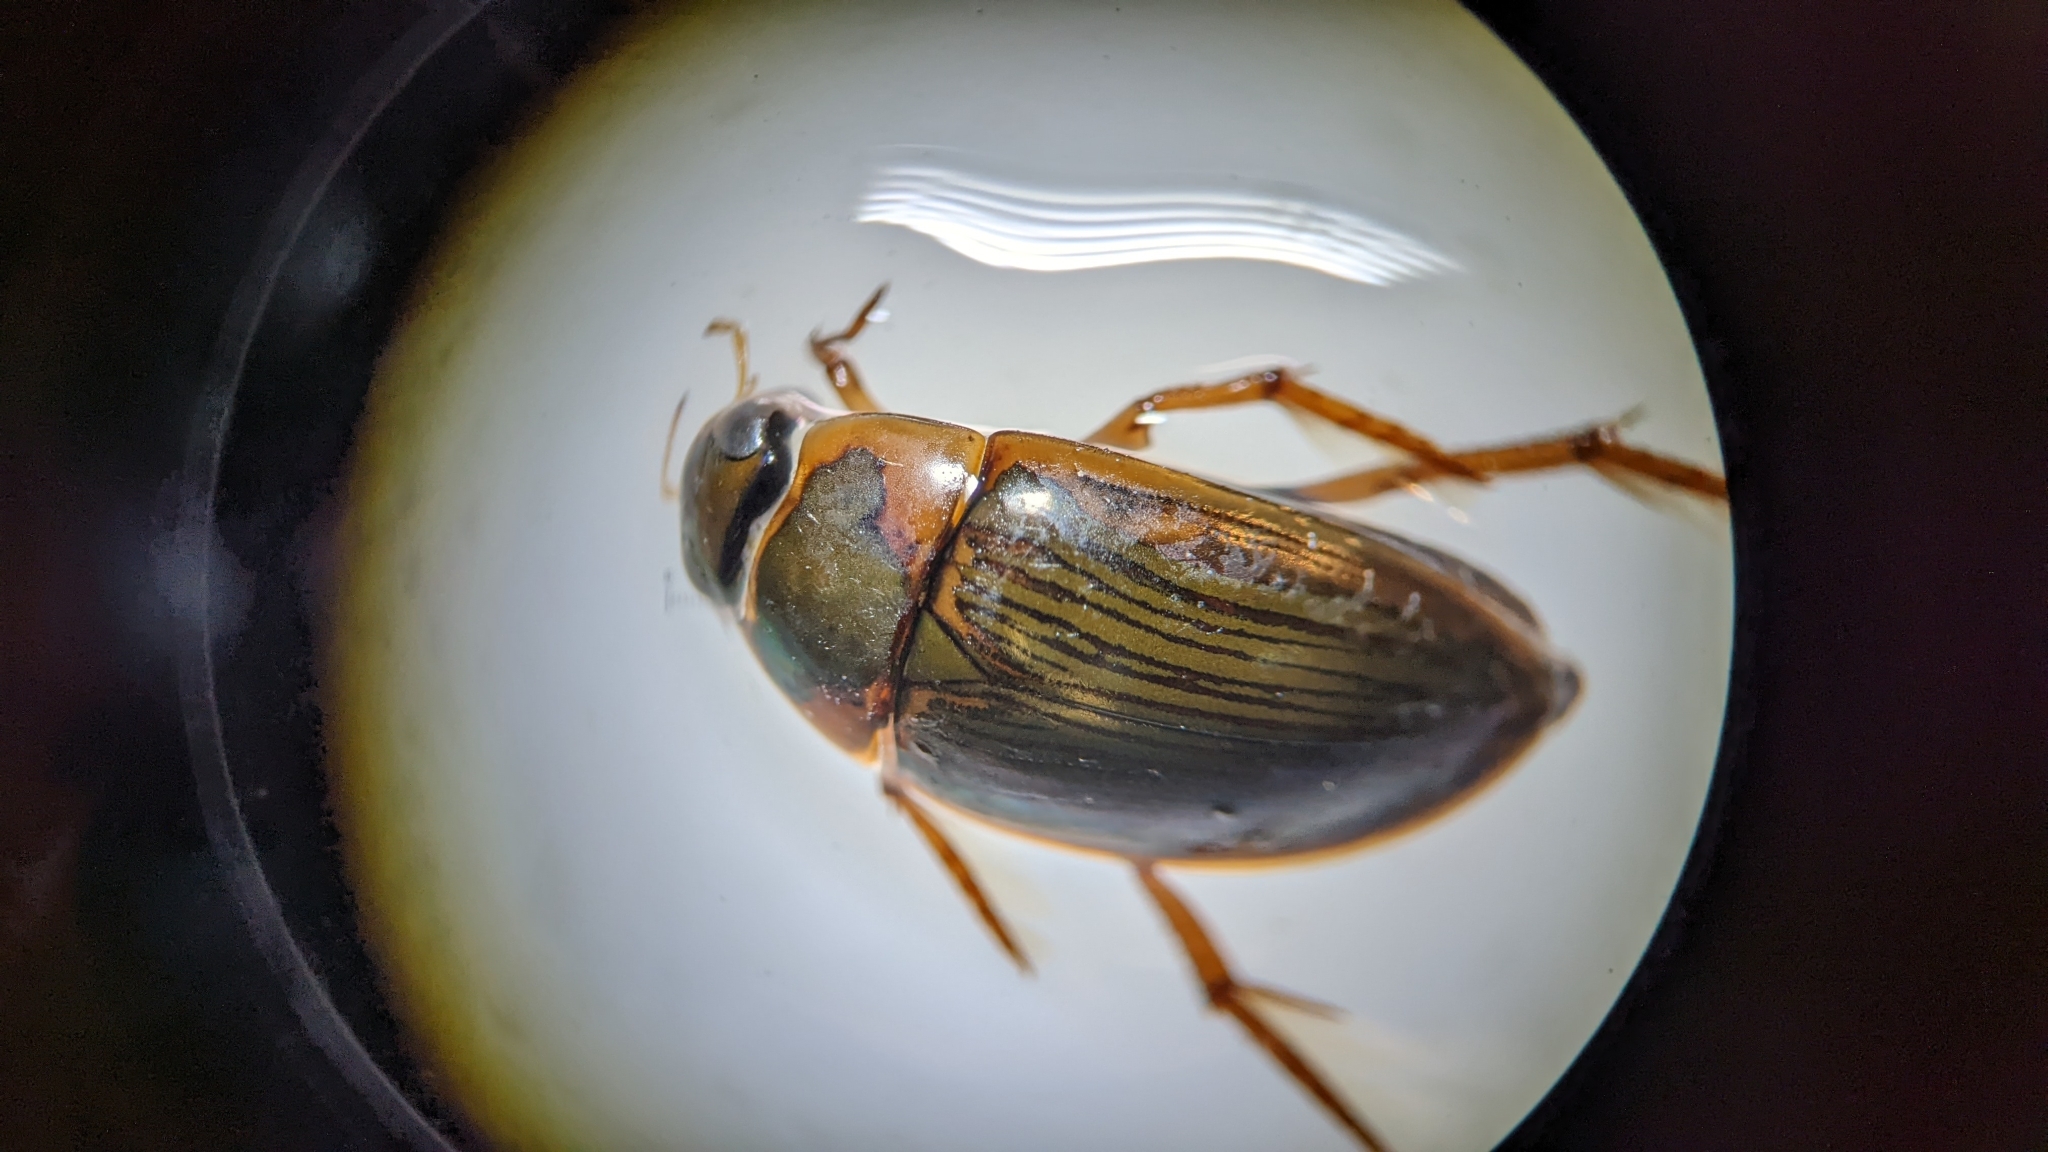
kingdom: Animalia
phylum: Arthropoda
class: Insecta
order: Coleoptera
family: Hydrophilidae
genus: Tropisternus
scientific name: Tropisternus collaris
